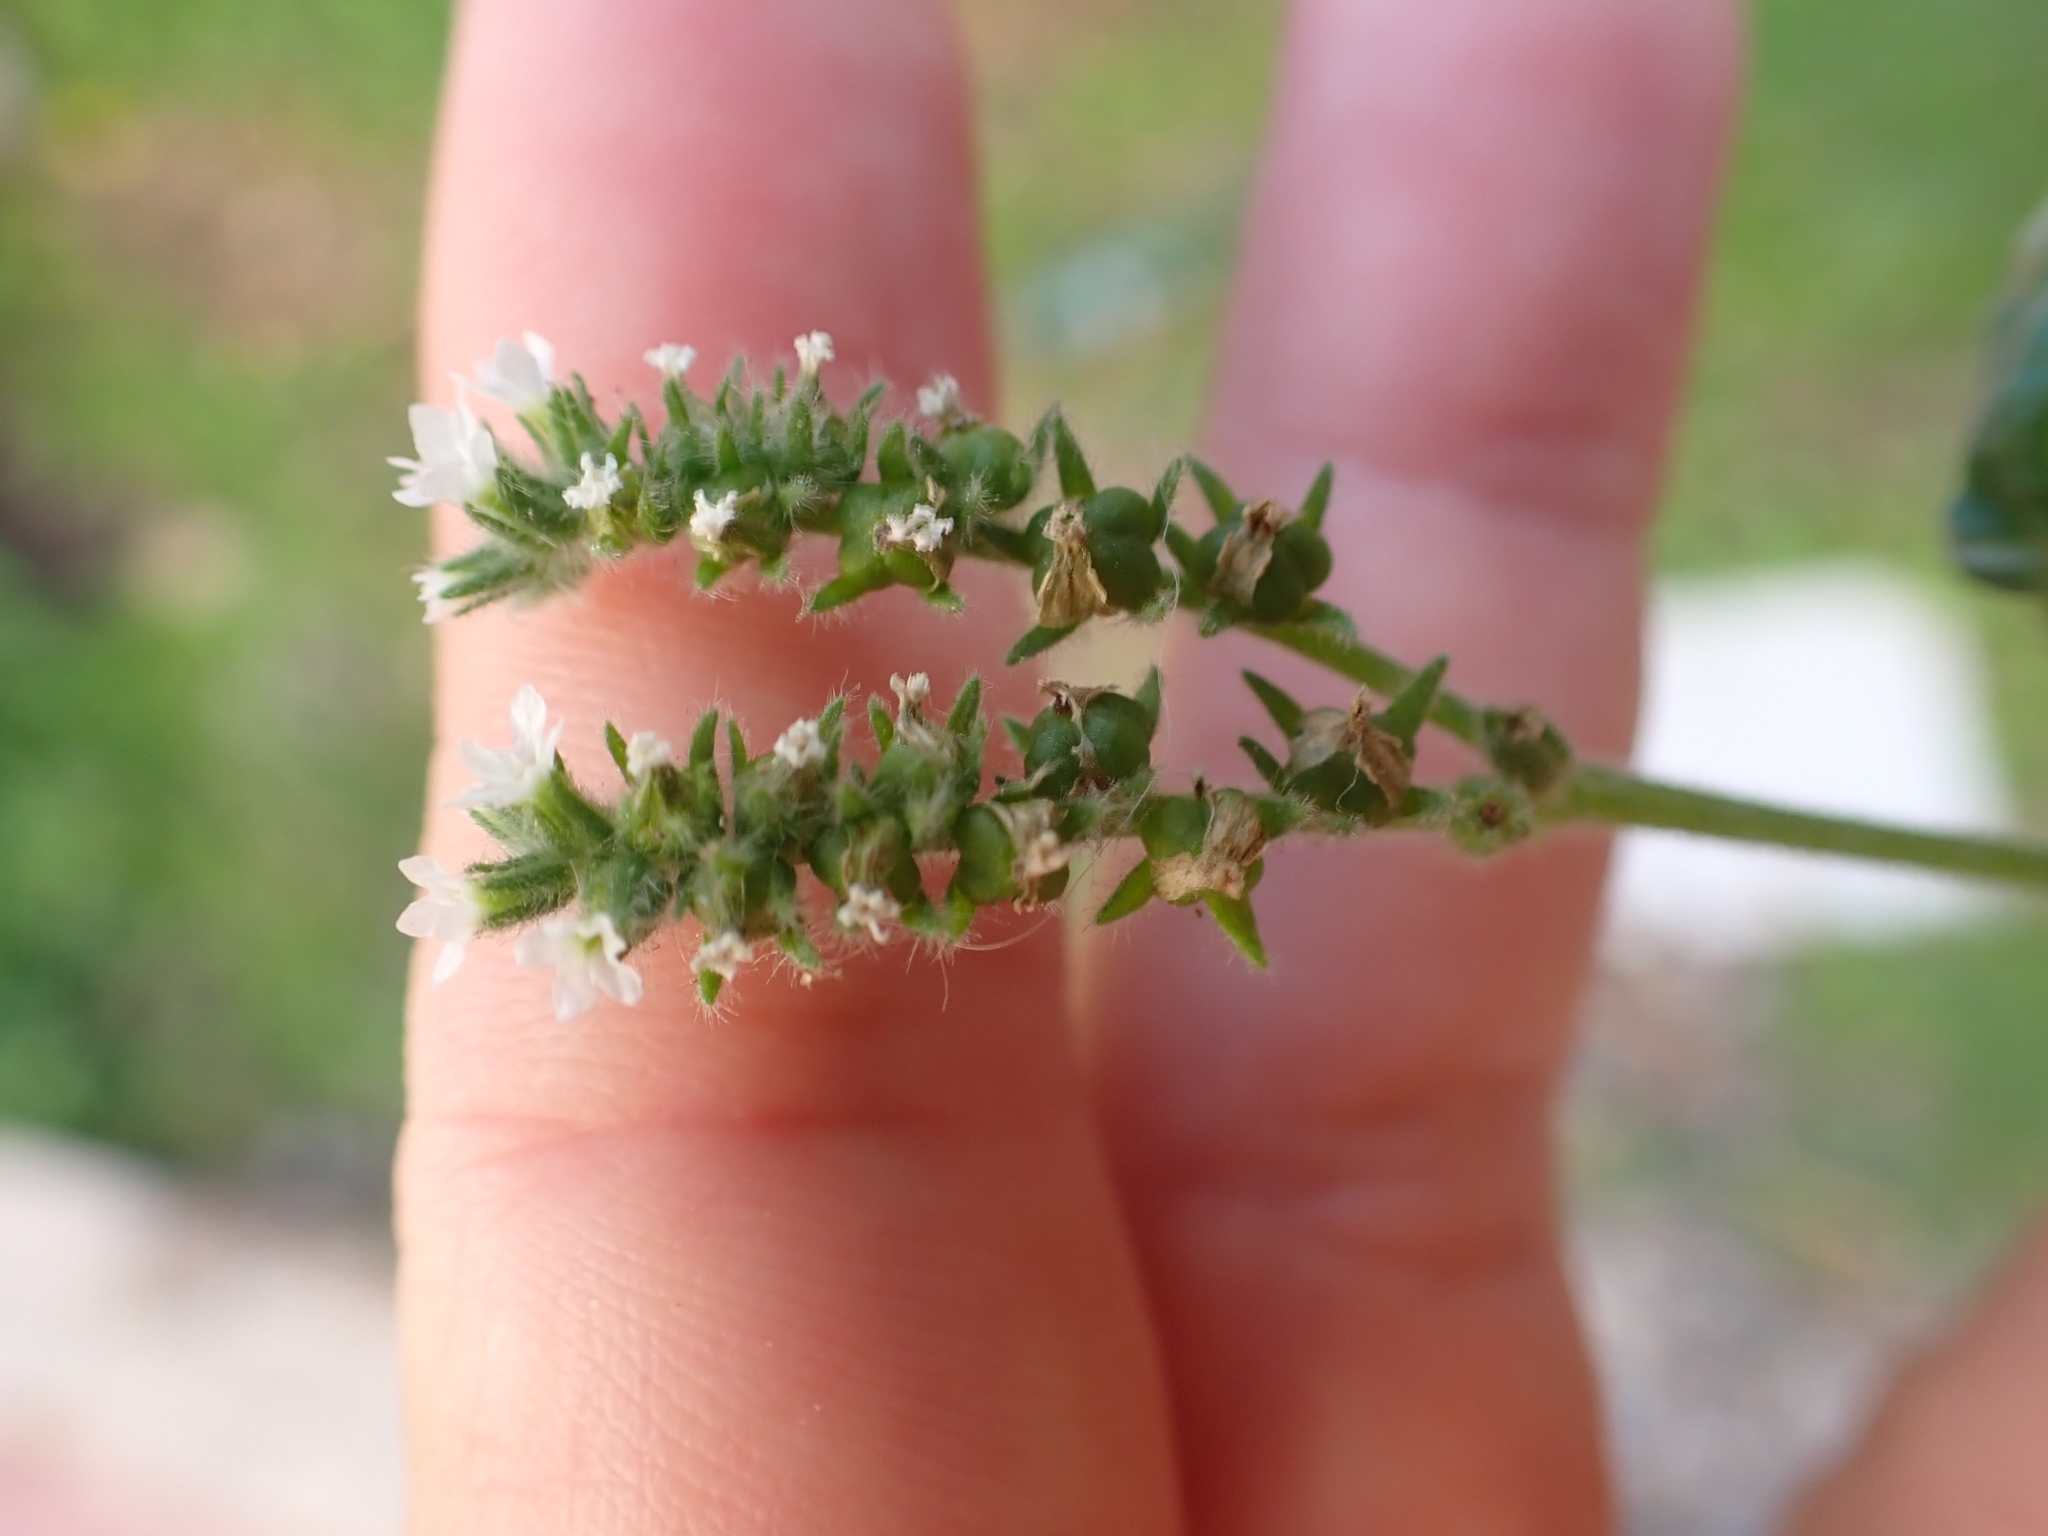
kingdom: Plantae
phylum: Tracheophyta
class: Magnoliopsida
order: Boraginales
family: Heliotropiaceae
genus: Heliotropium
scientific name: Heliotropium europaeum
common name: European heliotrope
